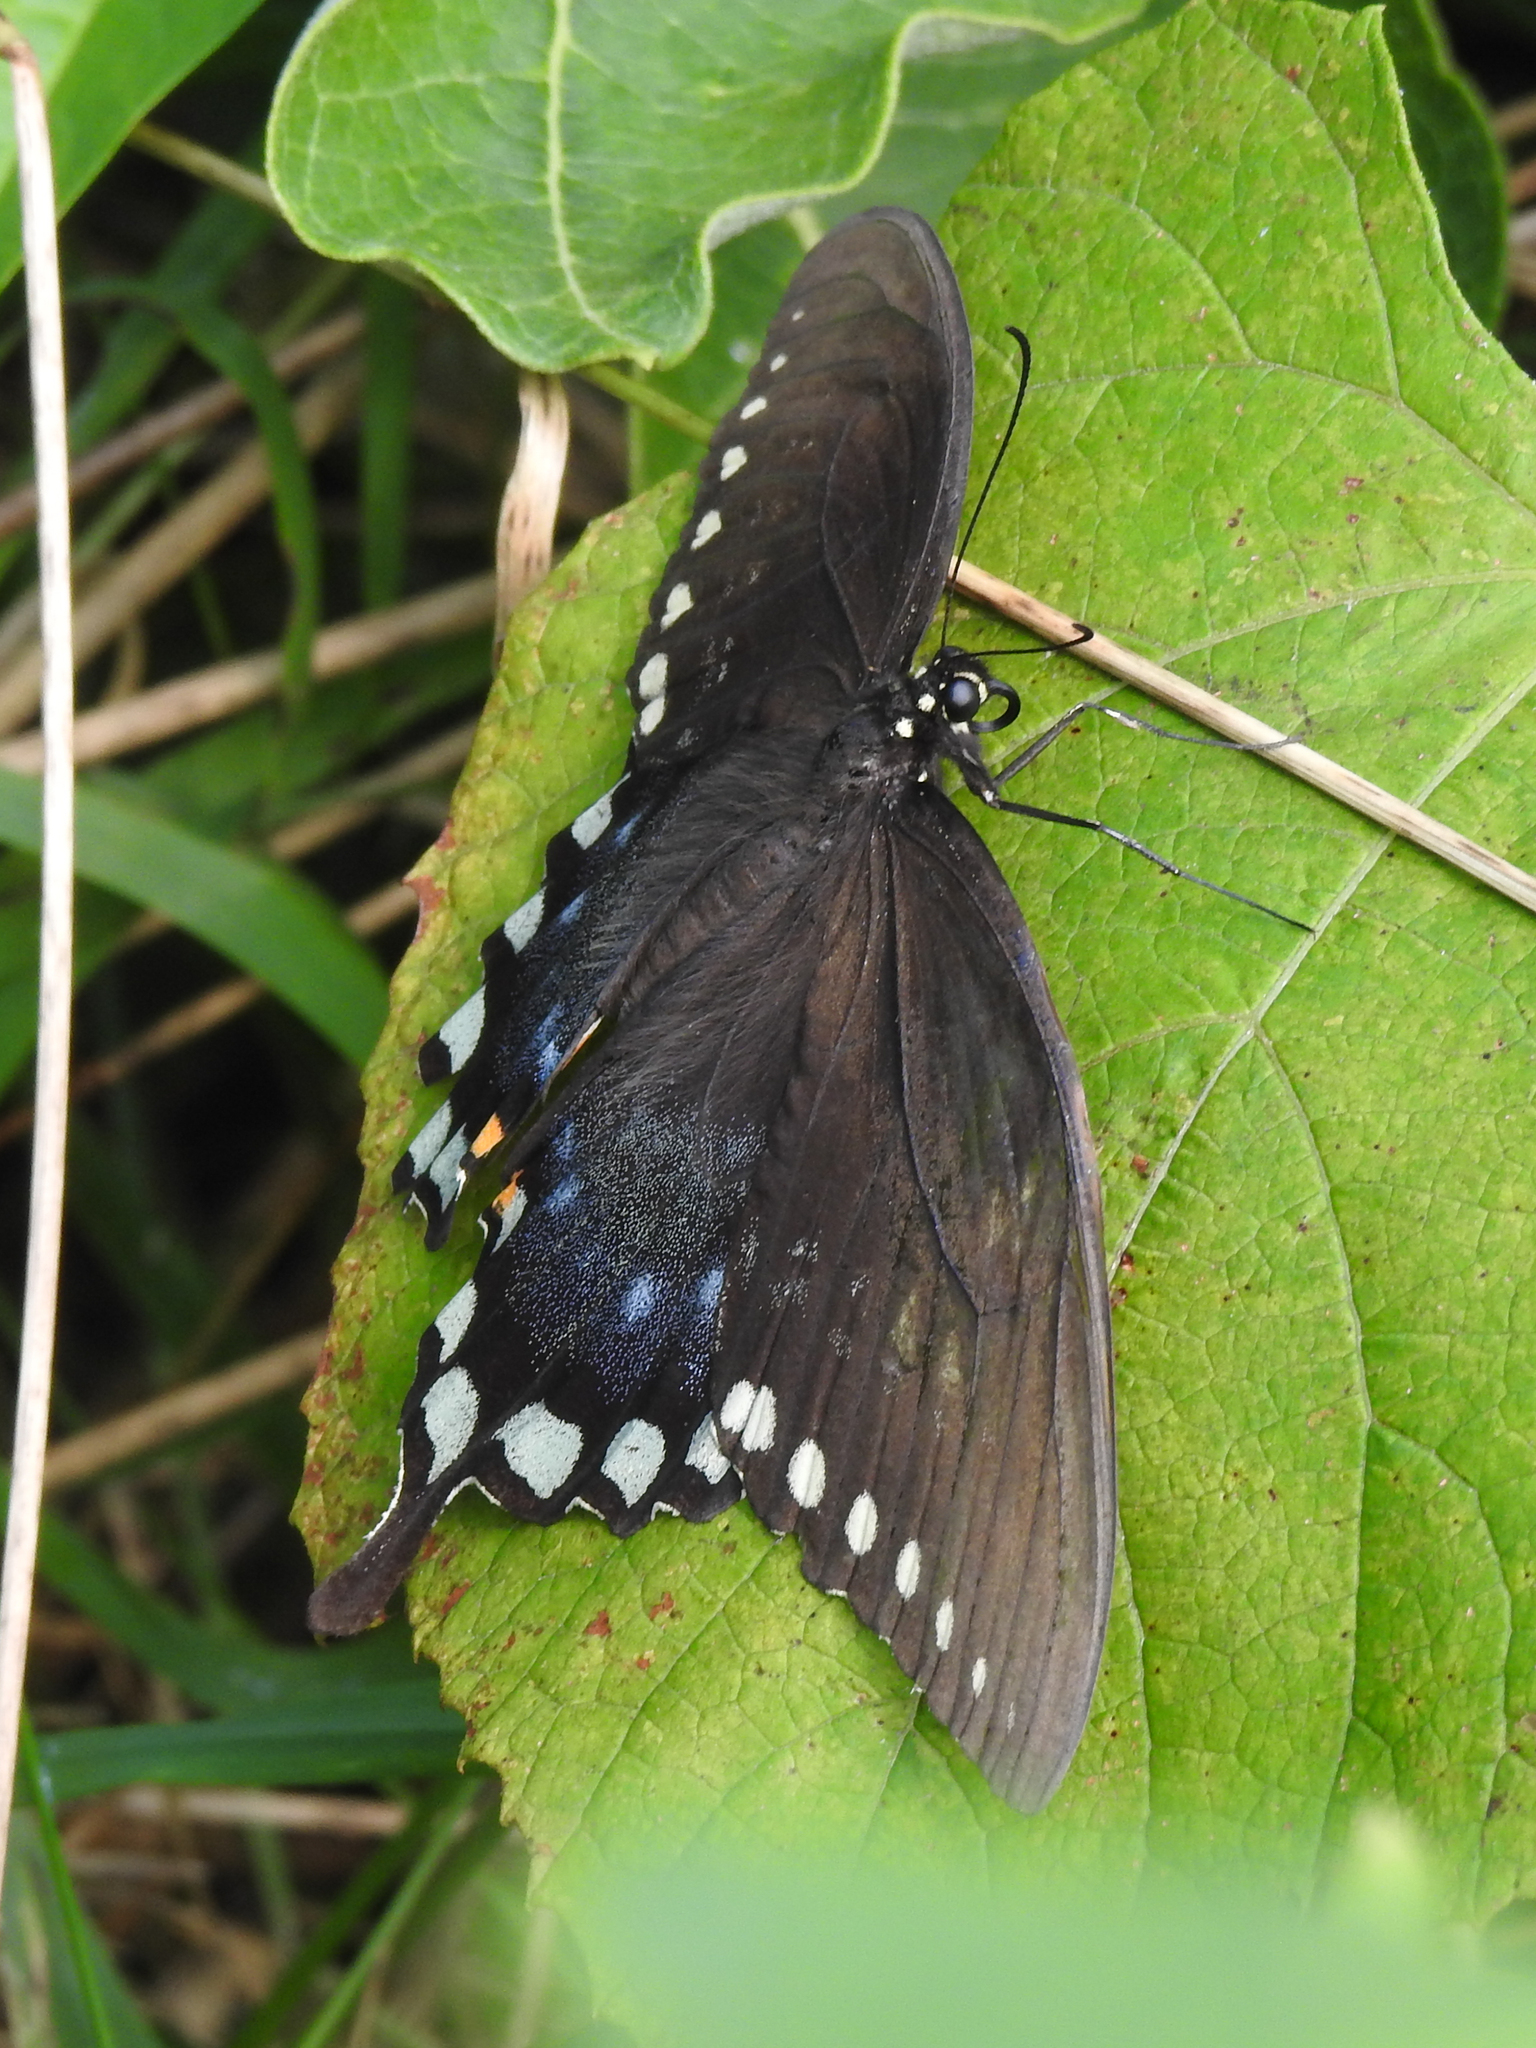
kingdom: Animalia
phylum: Arthropoda
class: Insecta
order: Lepidoptera
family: Papilionidae
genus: Papilio
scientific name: Papilio troilus
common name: Spicebush swallowtail
